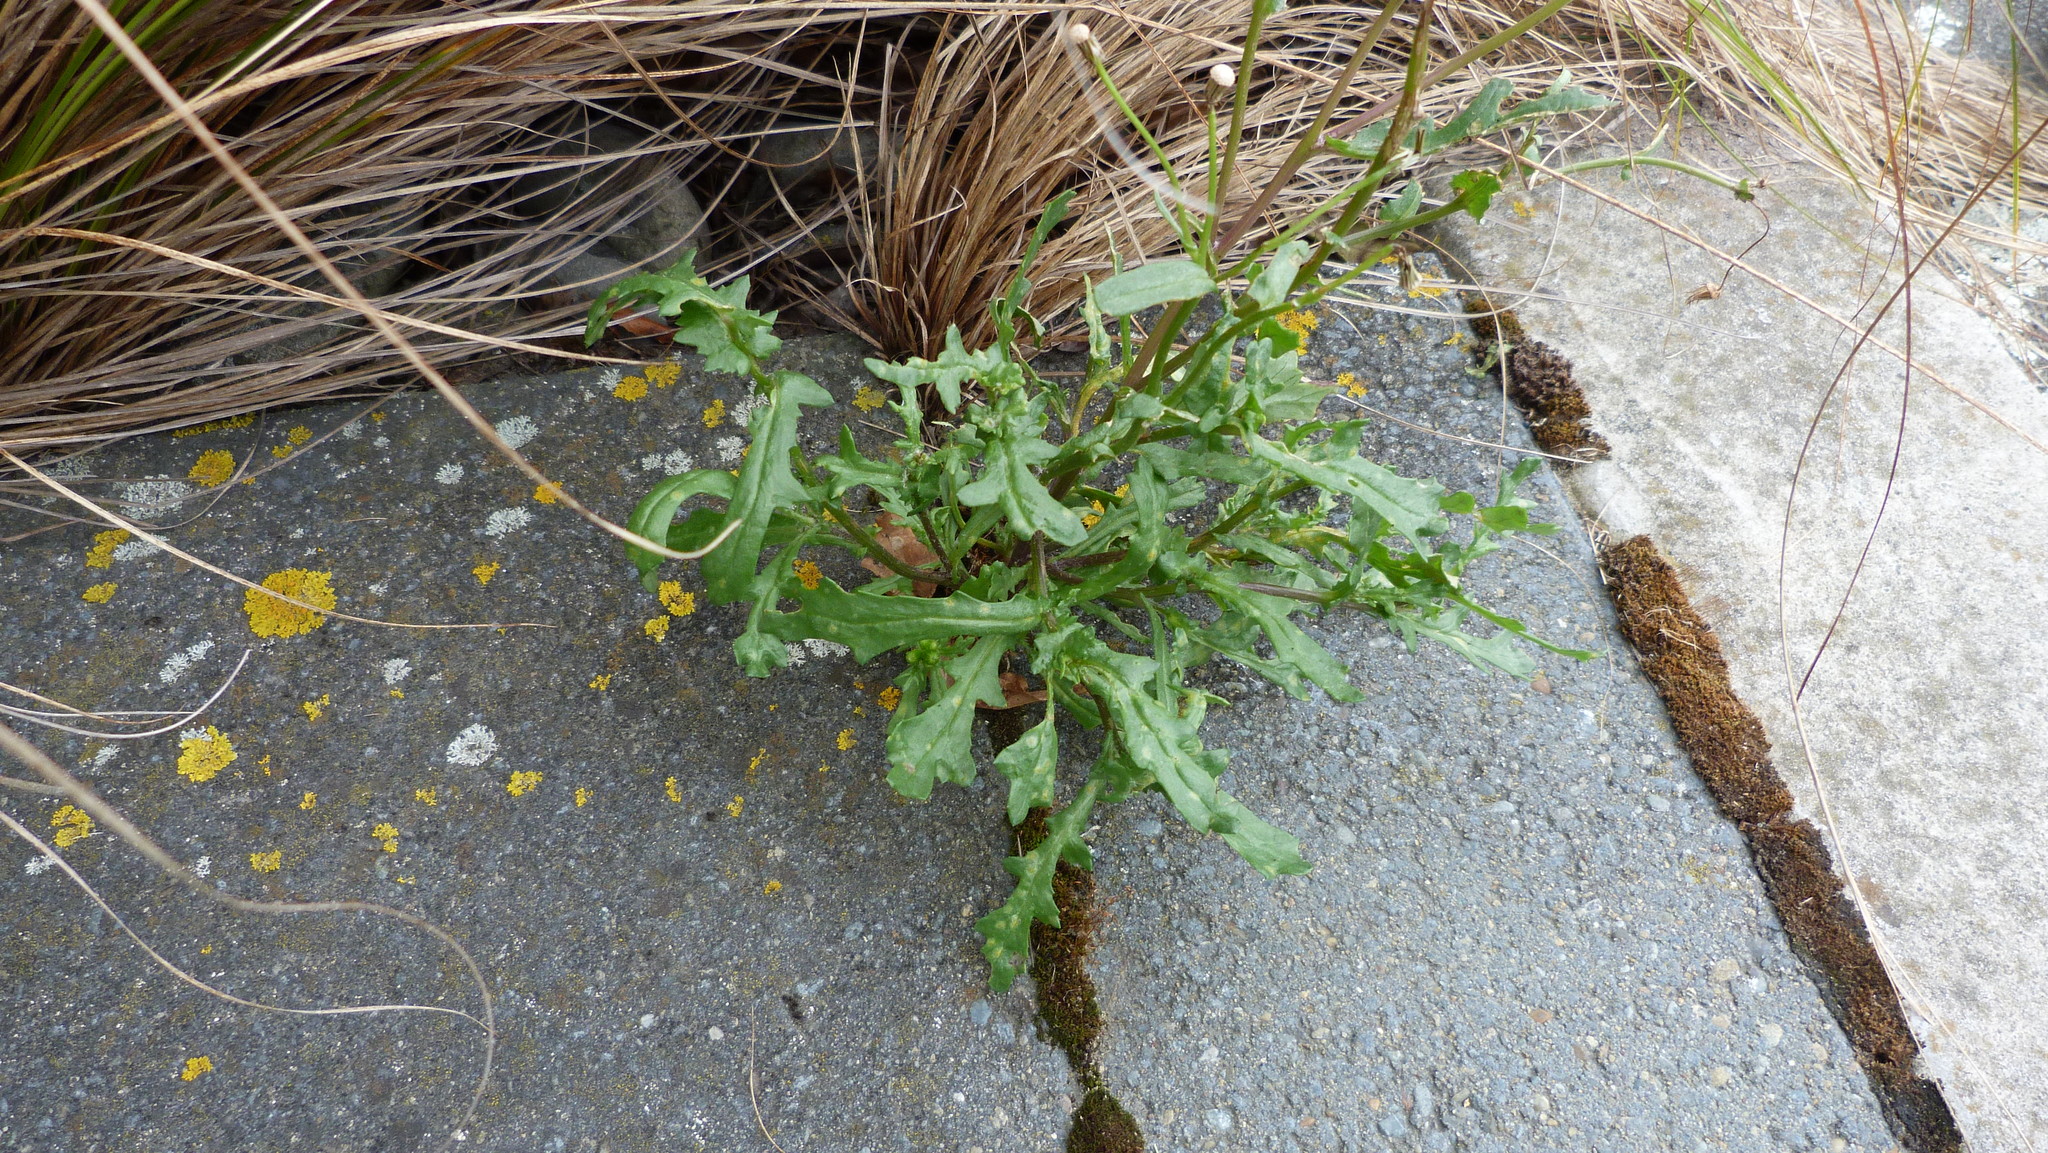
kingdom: Plantae
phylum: Tracheophyta
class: Magnoliopsida
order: Asterales
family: Asteraceae
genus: Senecio
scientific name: Senecio vulgaris
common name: Old-man-in-the-spring
